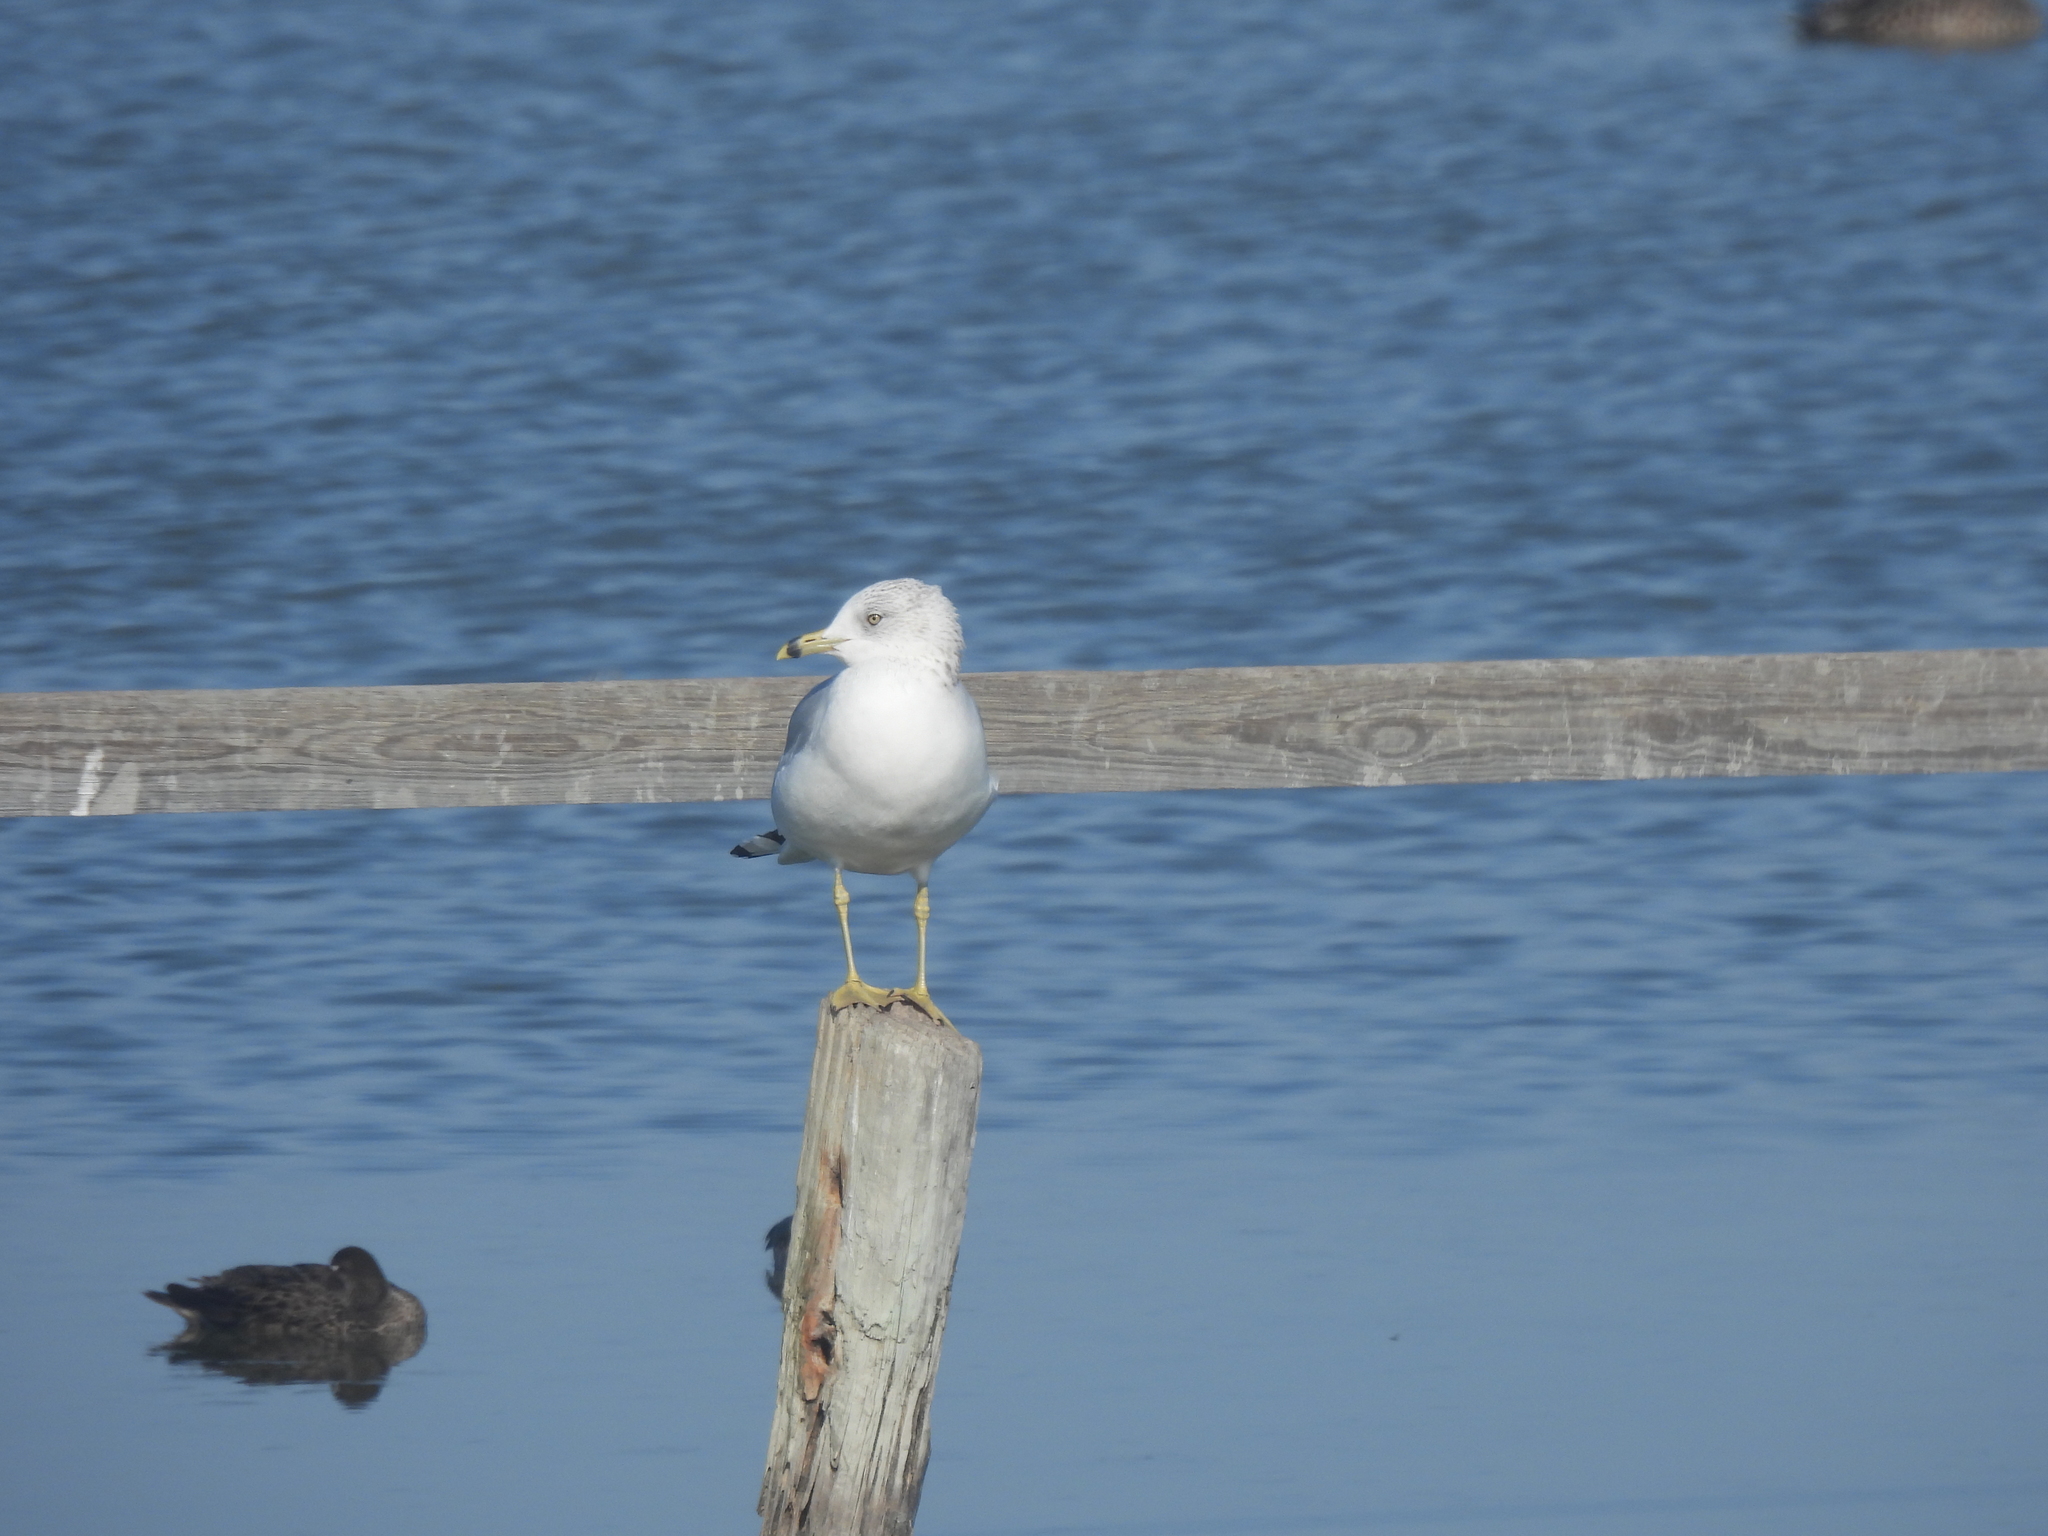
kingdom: Animalia
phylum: Chordata
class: Aves
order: Charadriiformes
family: Laridae
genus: Larus
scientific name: Larus delawarensis
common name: Ring-billed gull
